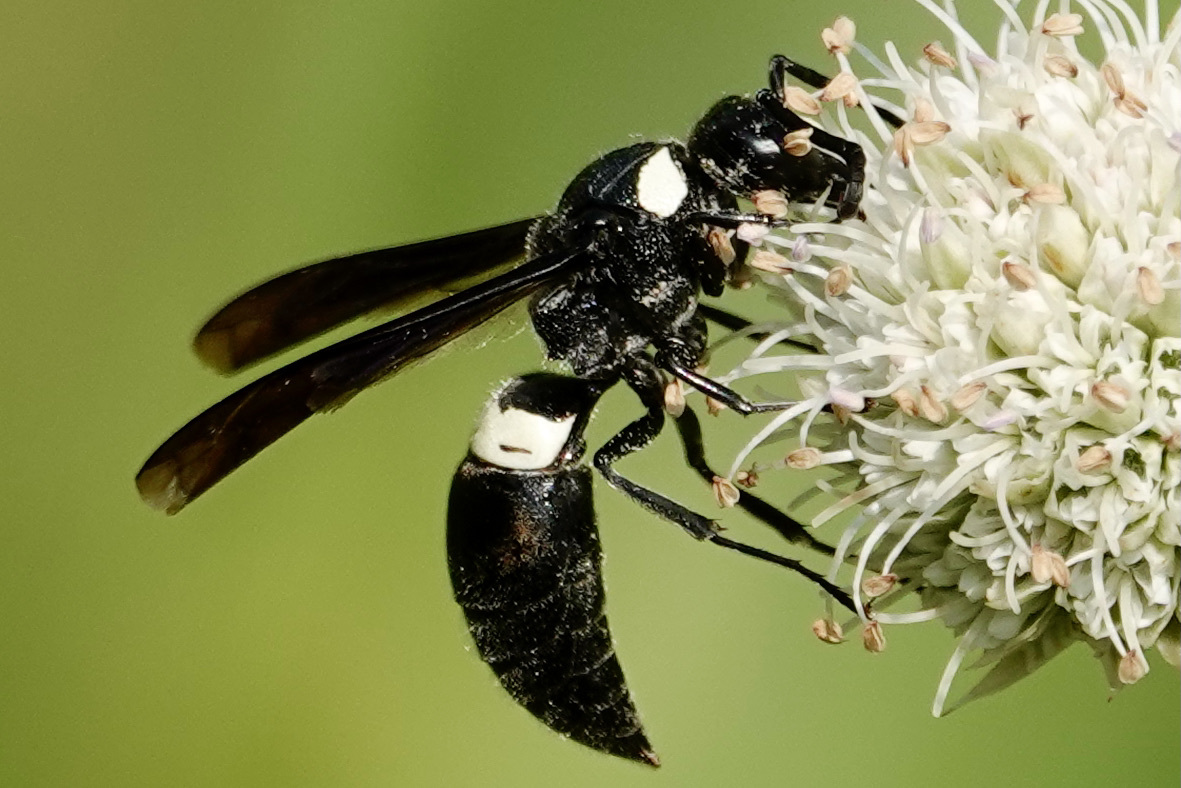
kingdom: Animalia
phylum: Arthropoda
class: Insecta
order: Hymenoptera
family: Eumenidae
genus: Monobia
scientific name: Monobia quadridens
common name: Four-toothed mason wasp
